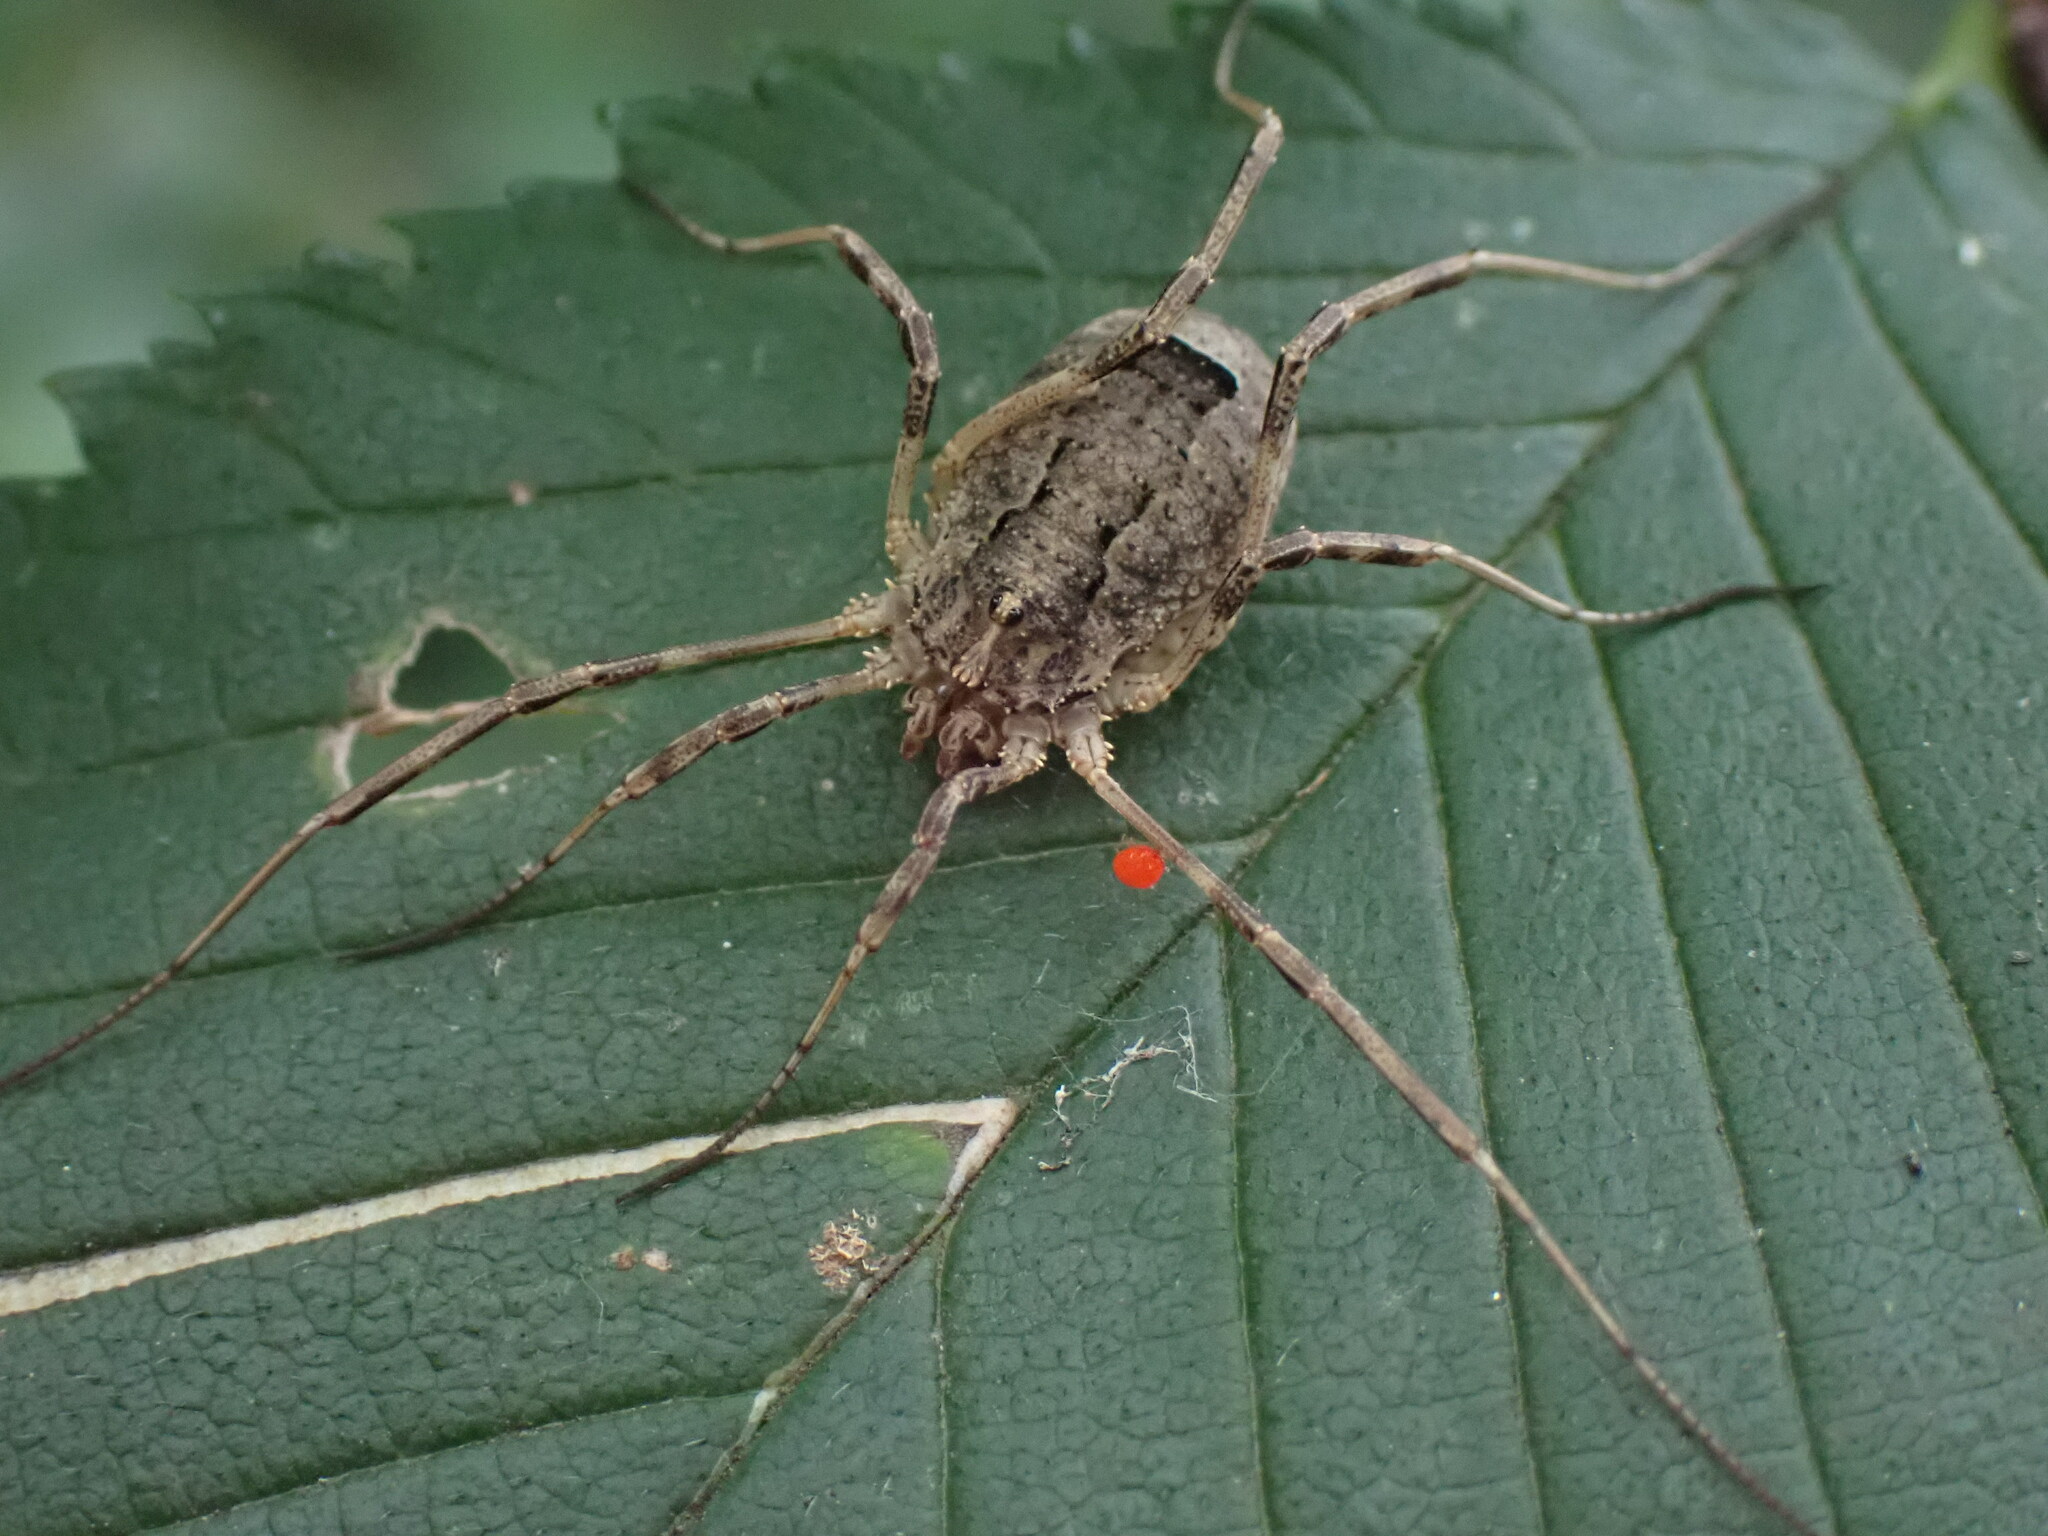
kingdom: Animalia
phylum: Arthropoda
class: Arachnida
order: Opiliones
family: Phalangiidae
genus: Odiellus
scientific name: Odiellus spinosus
